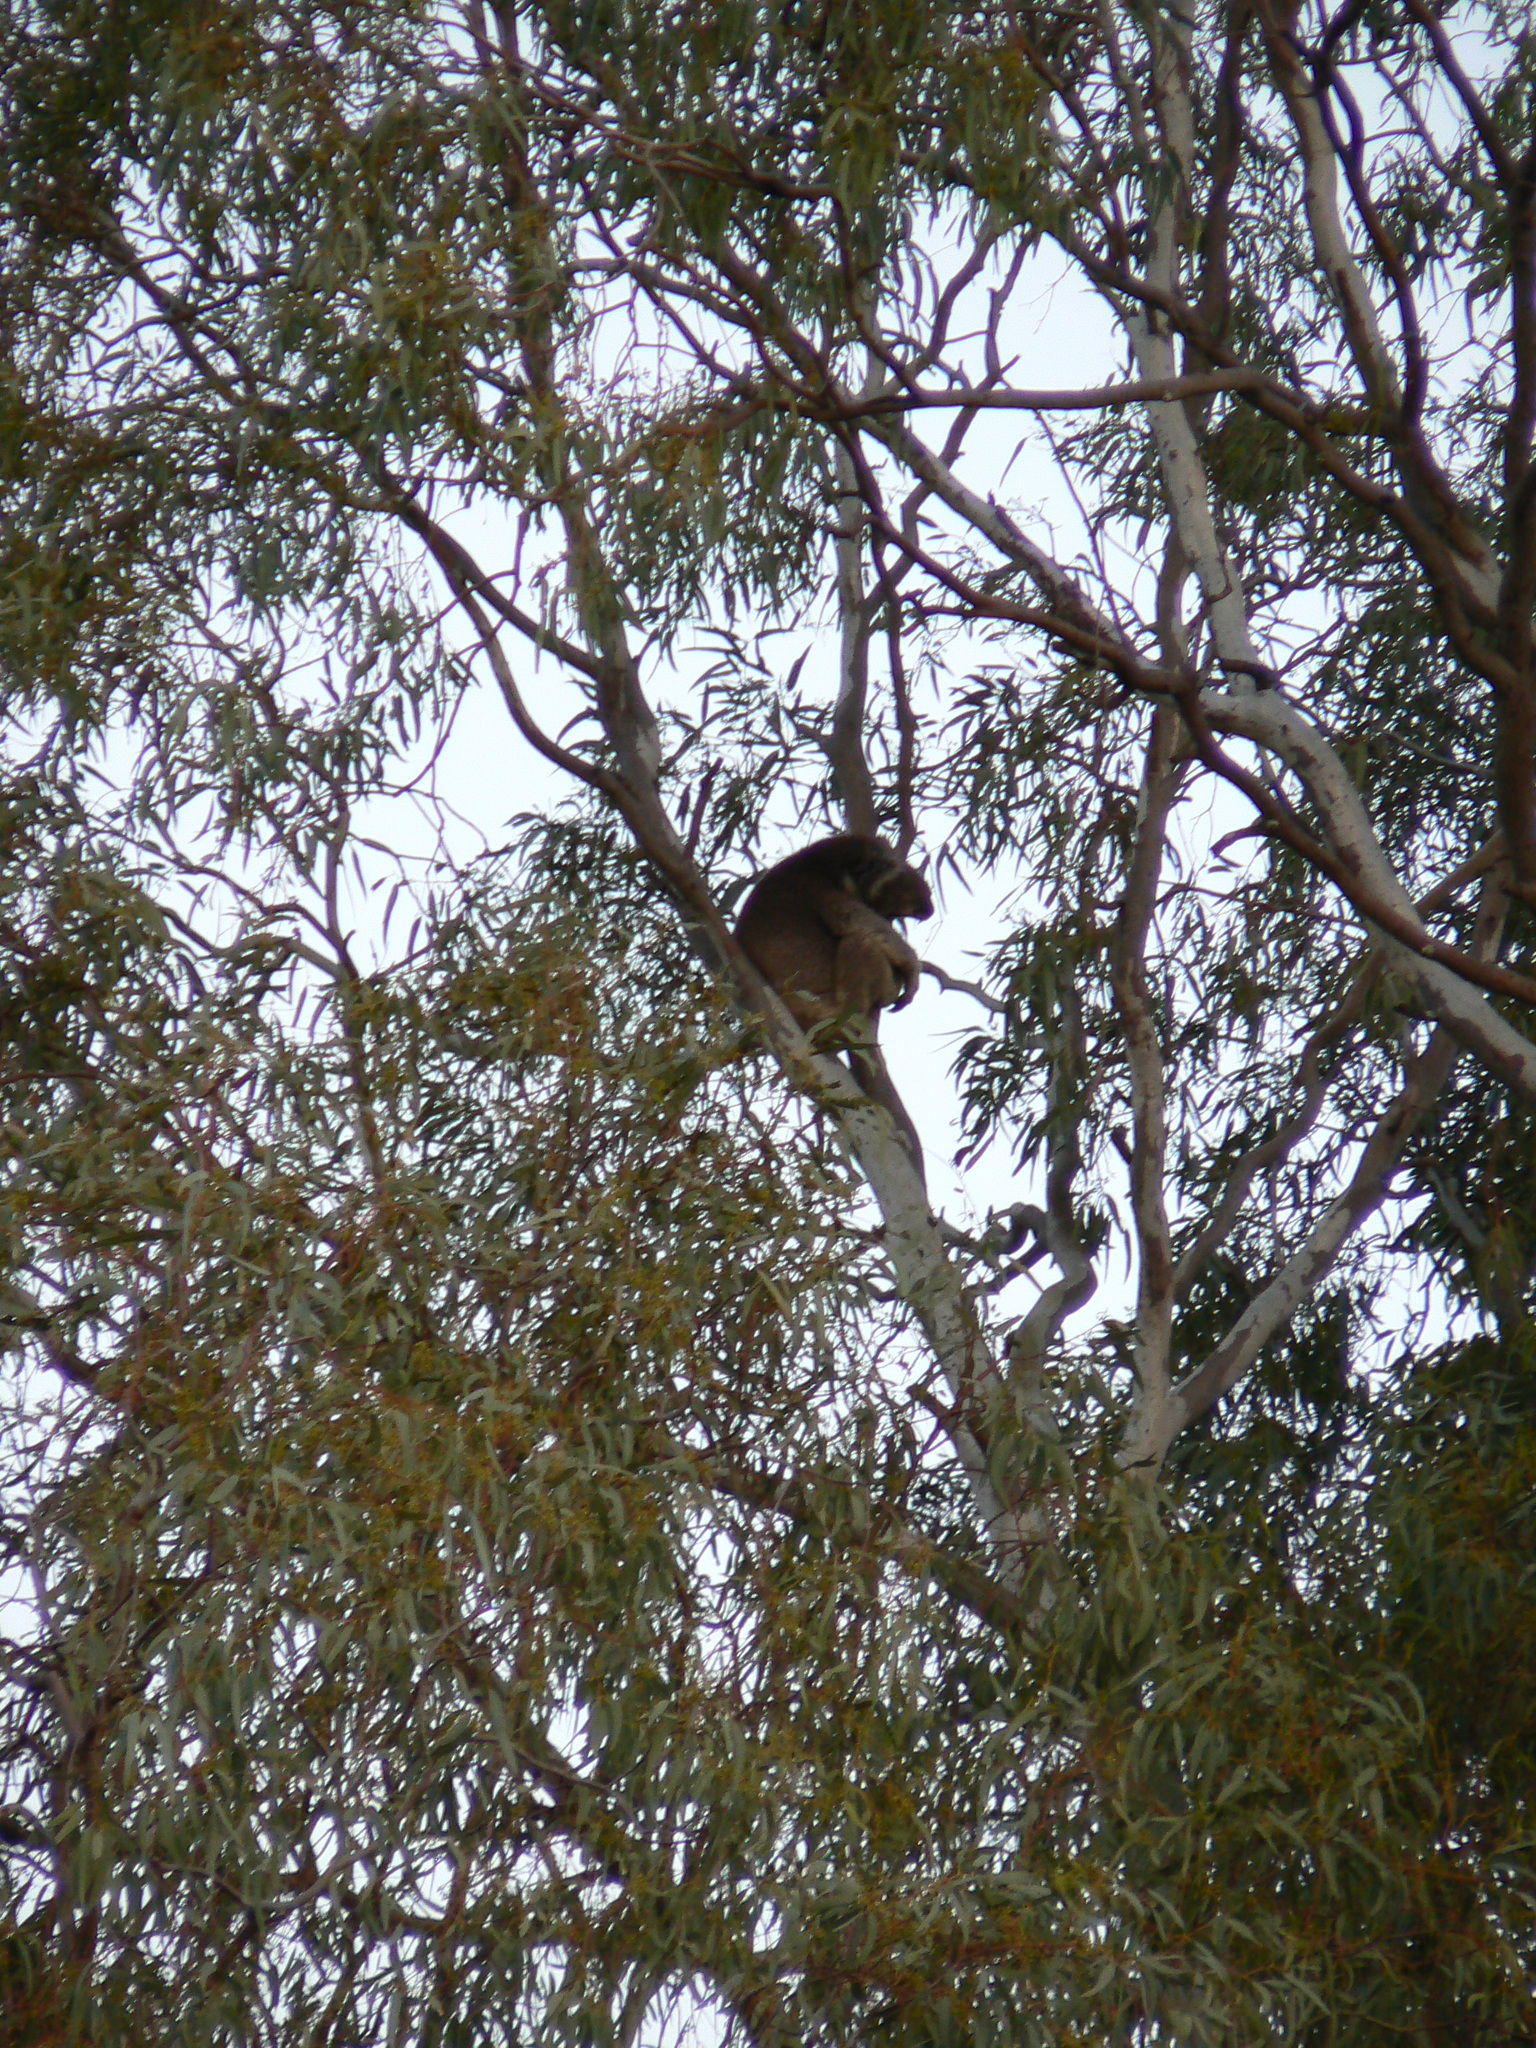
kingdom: Animalia
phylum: Chordata
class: Mammalia
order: Diprotodontia
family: Phascolarctidae
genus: Phascolarctos
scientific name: Phascolarctos cinereus
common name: Koala
